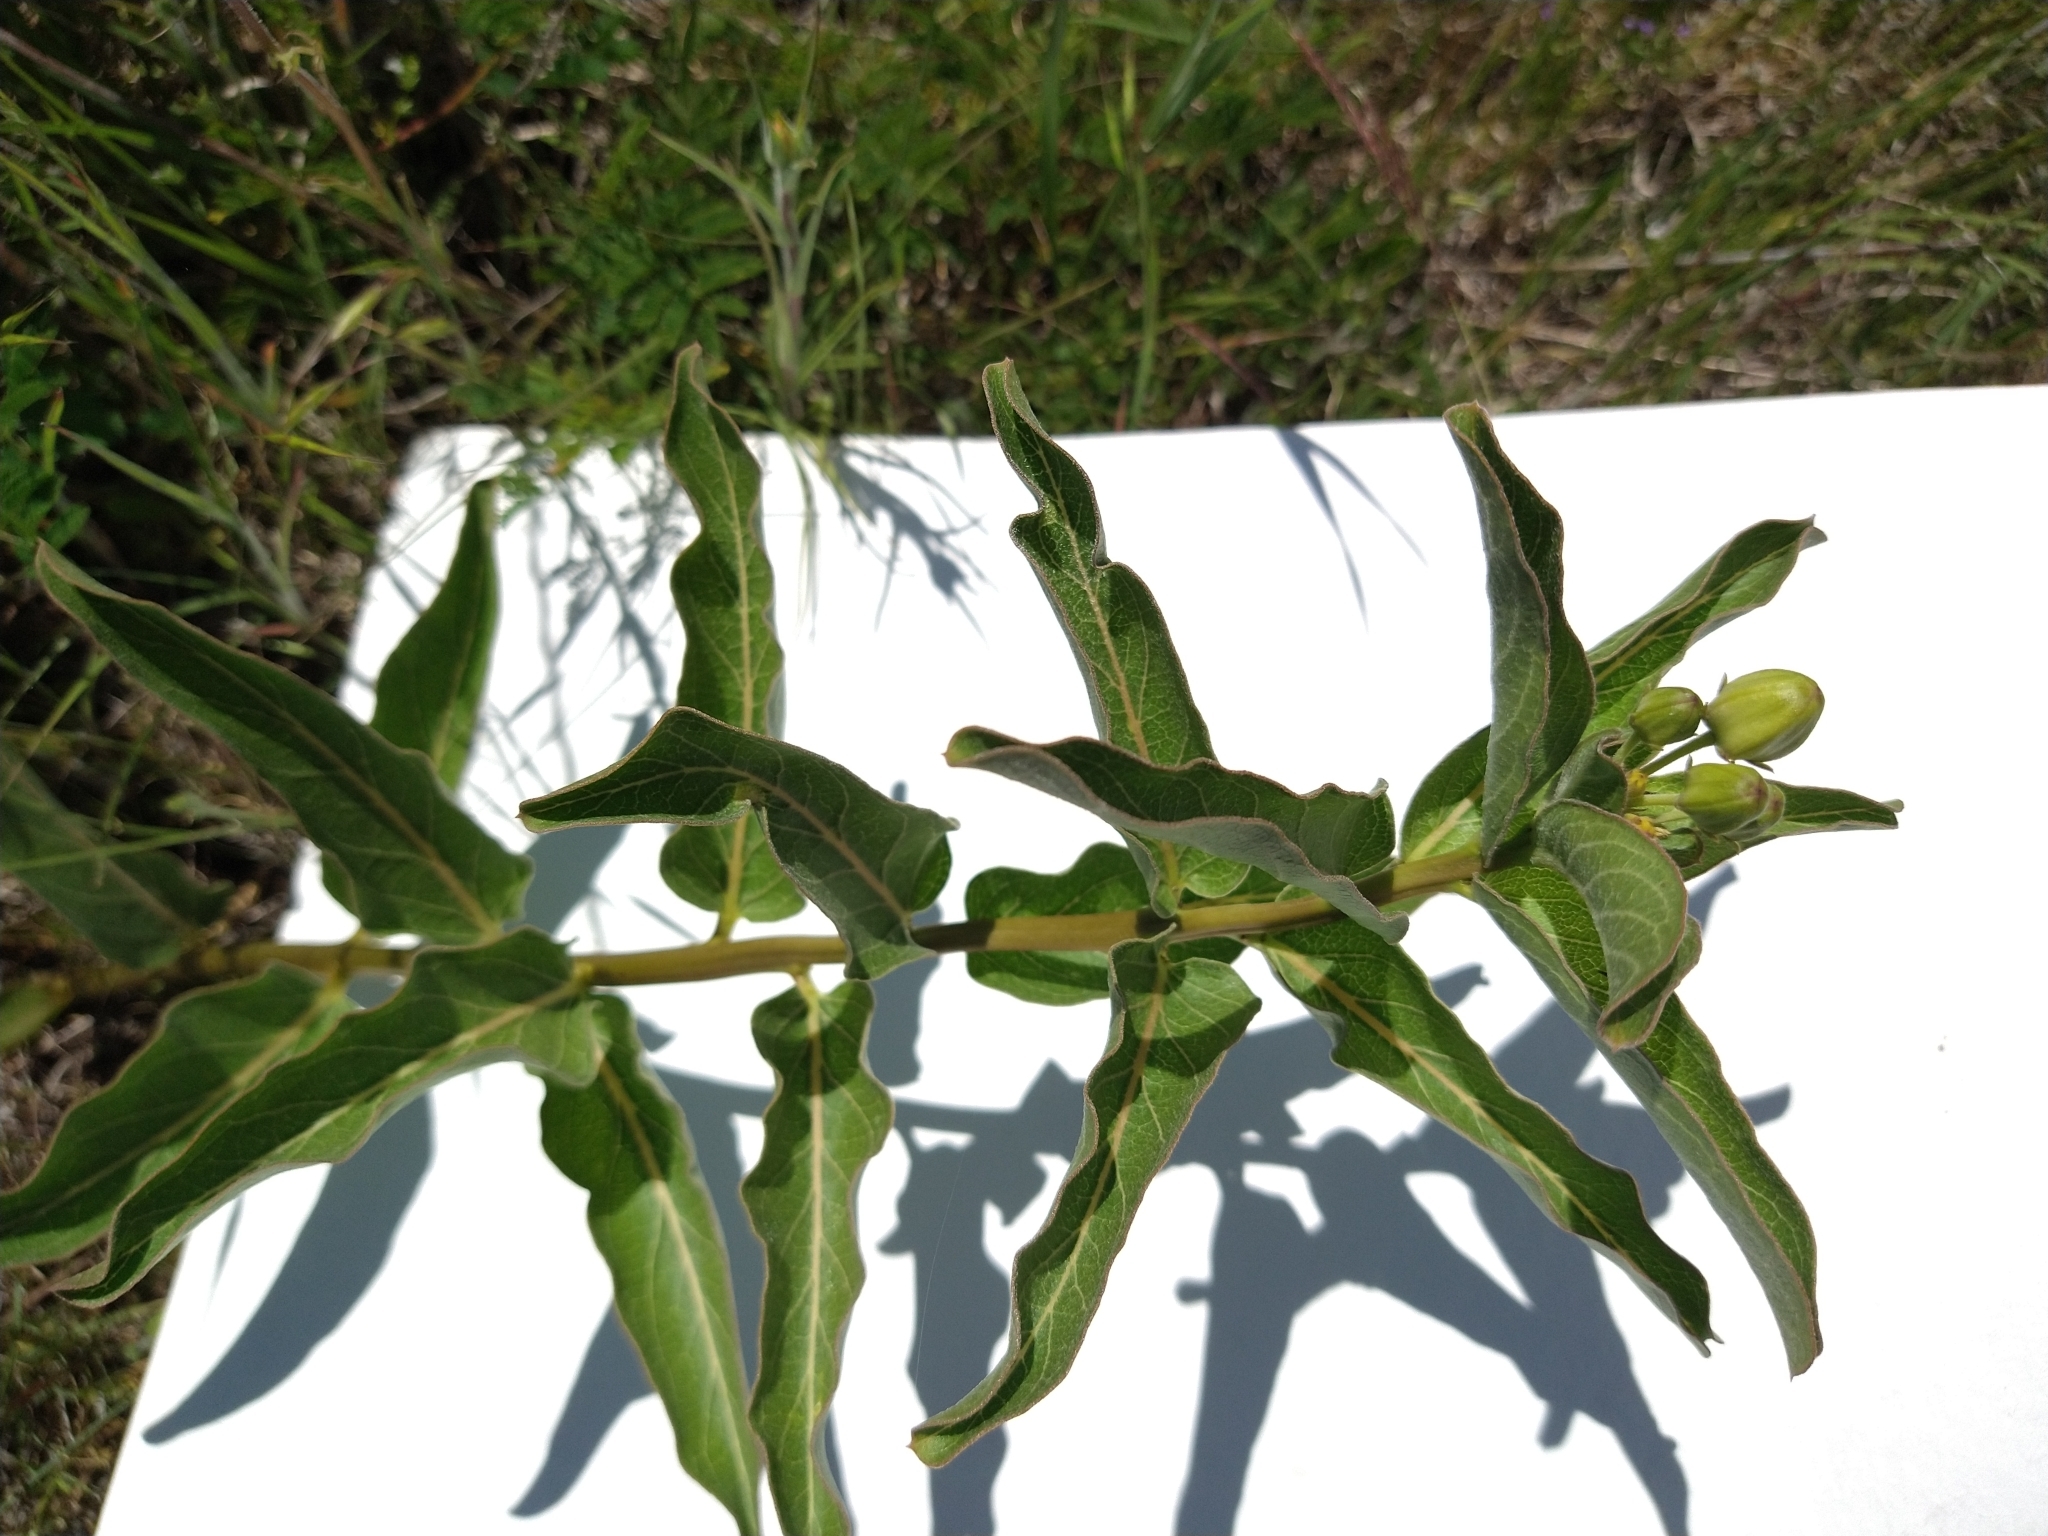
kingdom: Plantae
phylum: Tracheophyta
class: Magnoliopsida
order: Gentianales
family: Apocynaceae
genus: Asclepias
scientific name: Asclepias viridis
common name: Antelope-horns
